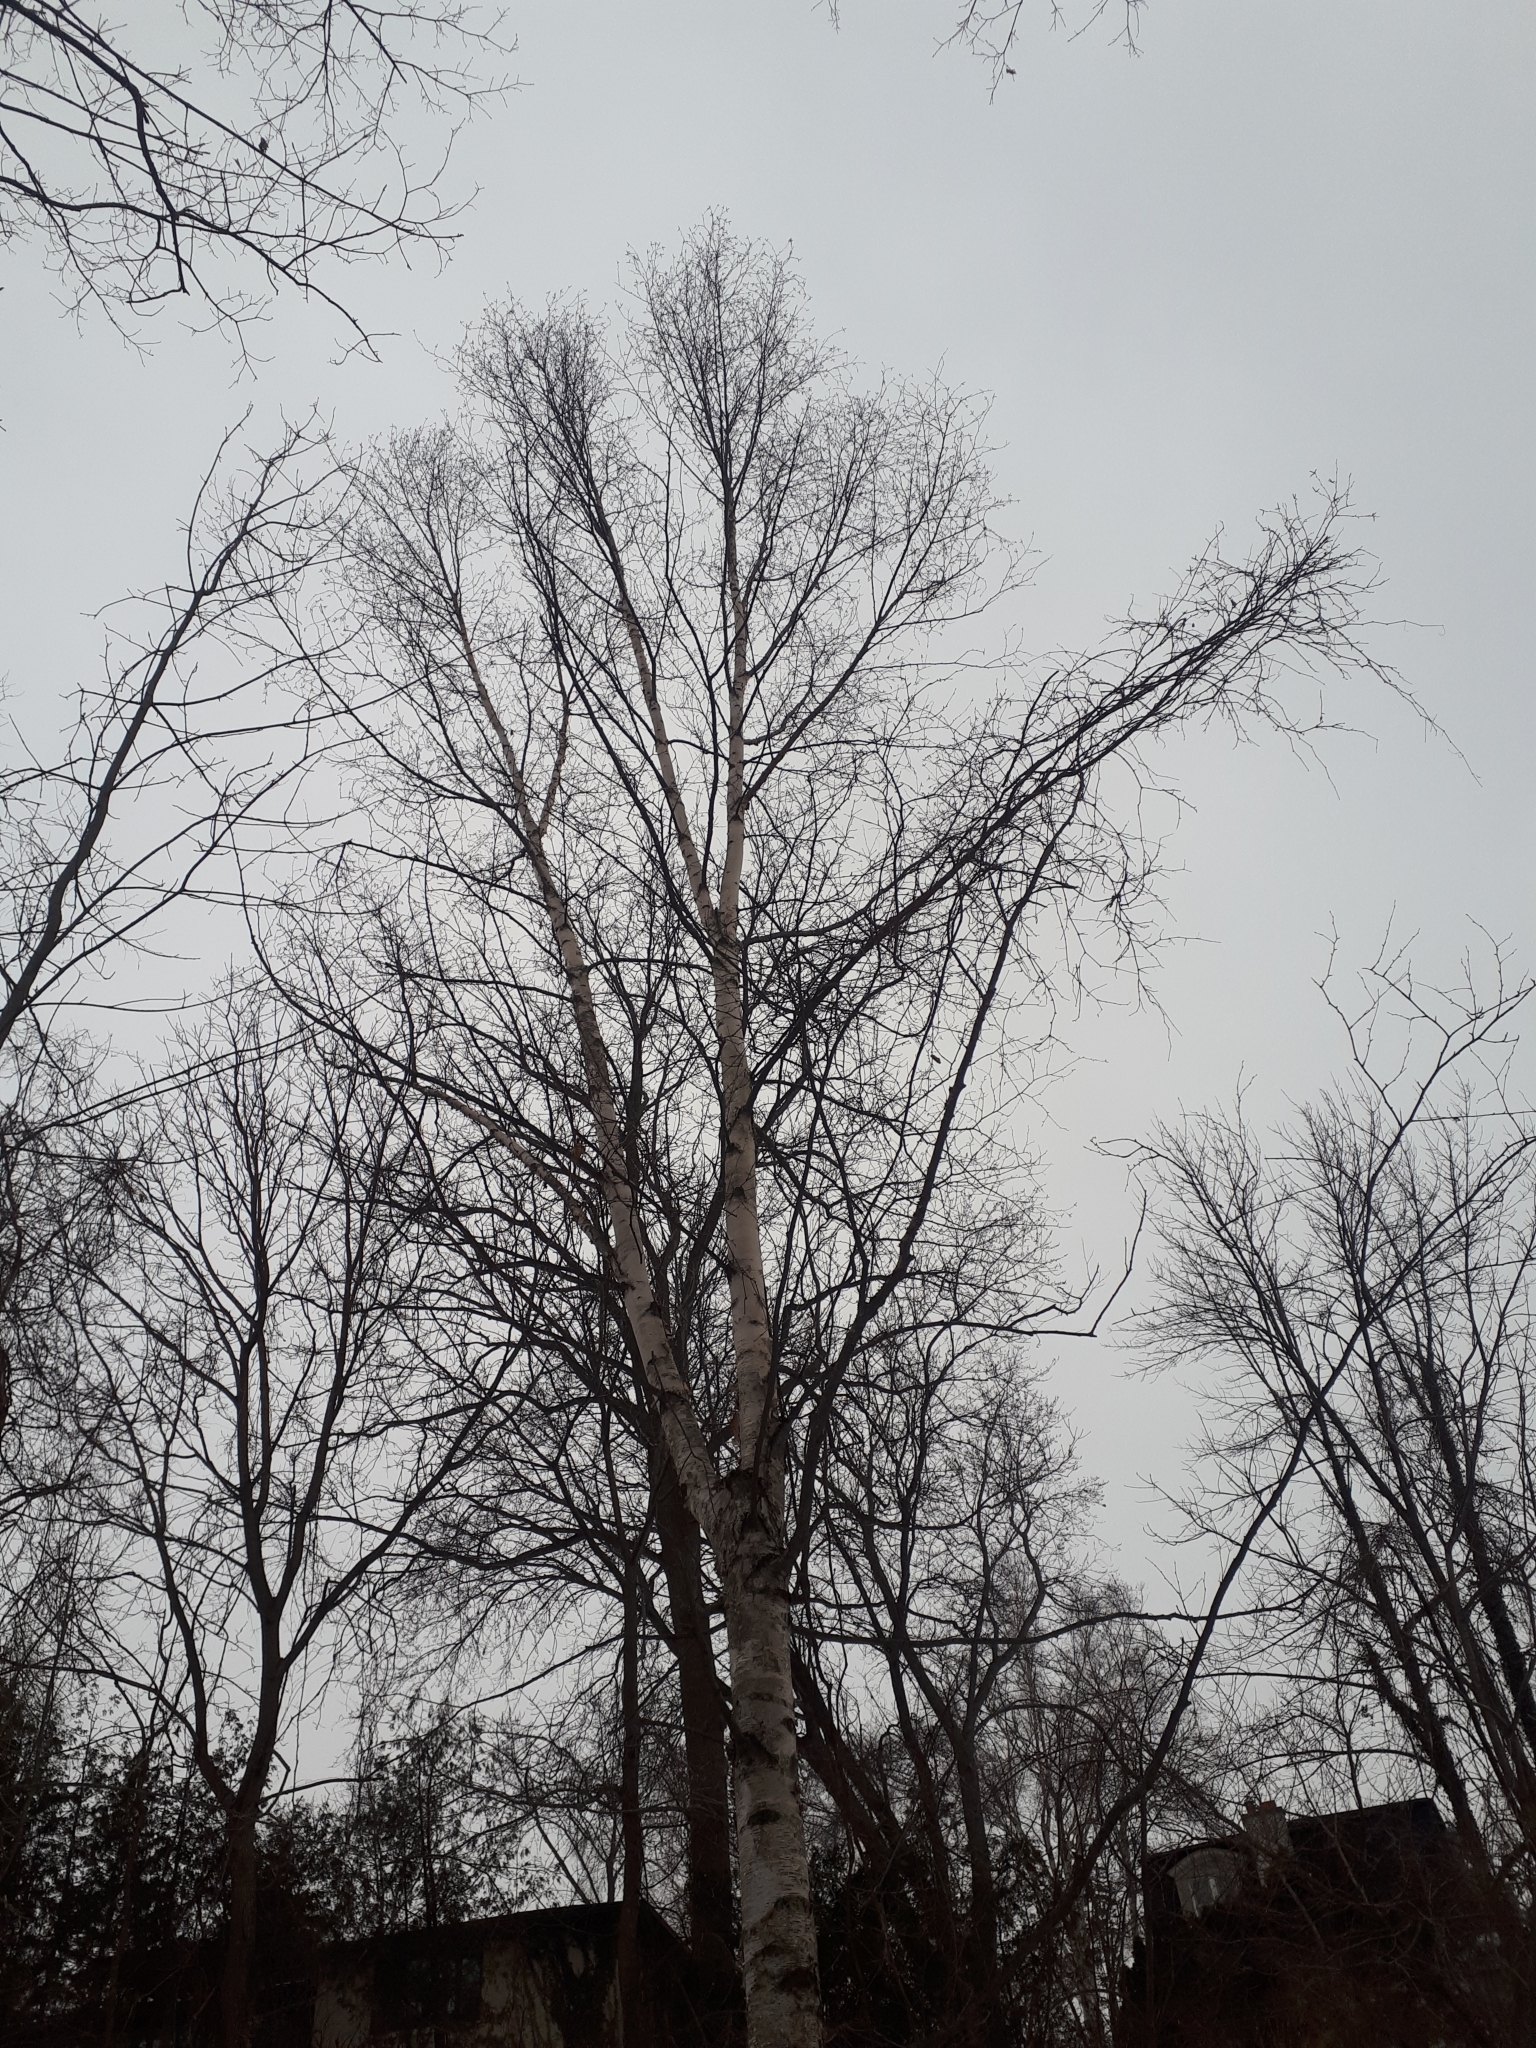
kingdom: Plantae
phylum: Tracheophyta
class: Magnoliopsida
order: Fagales
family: Betulaceae
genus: Betula
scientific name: Betula papyrifera
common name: Paper birch
